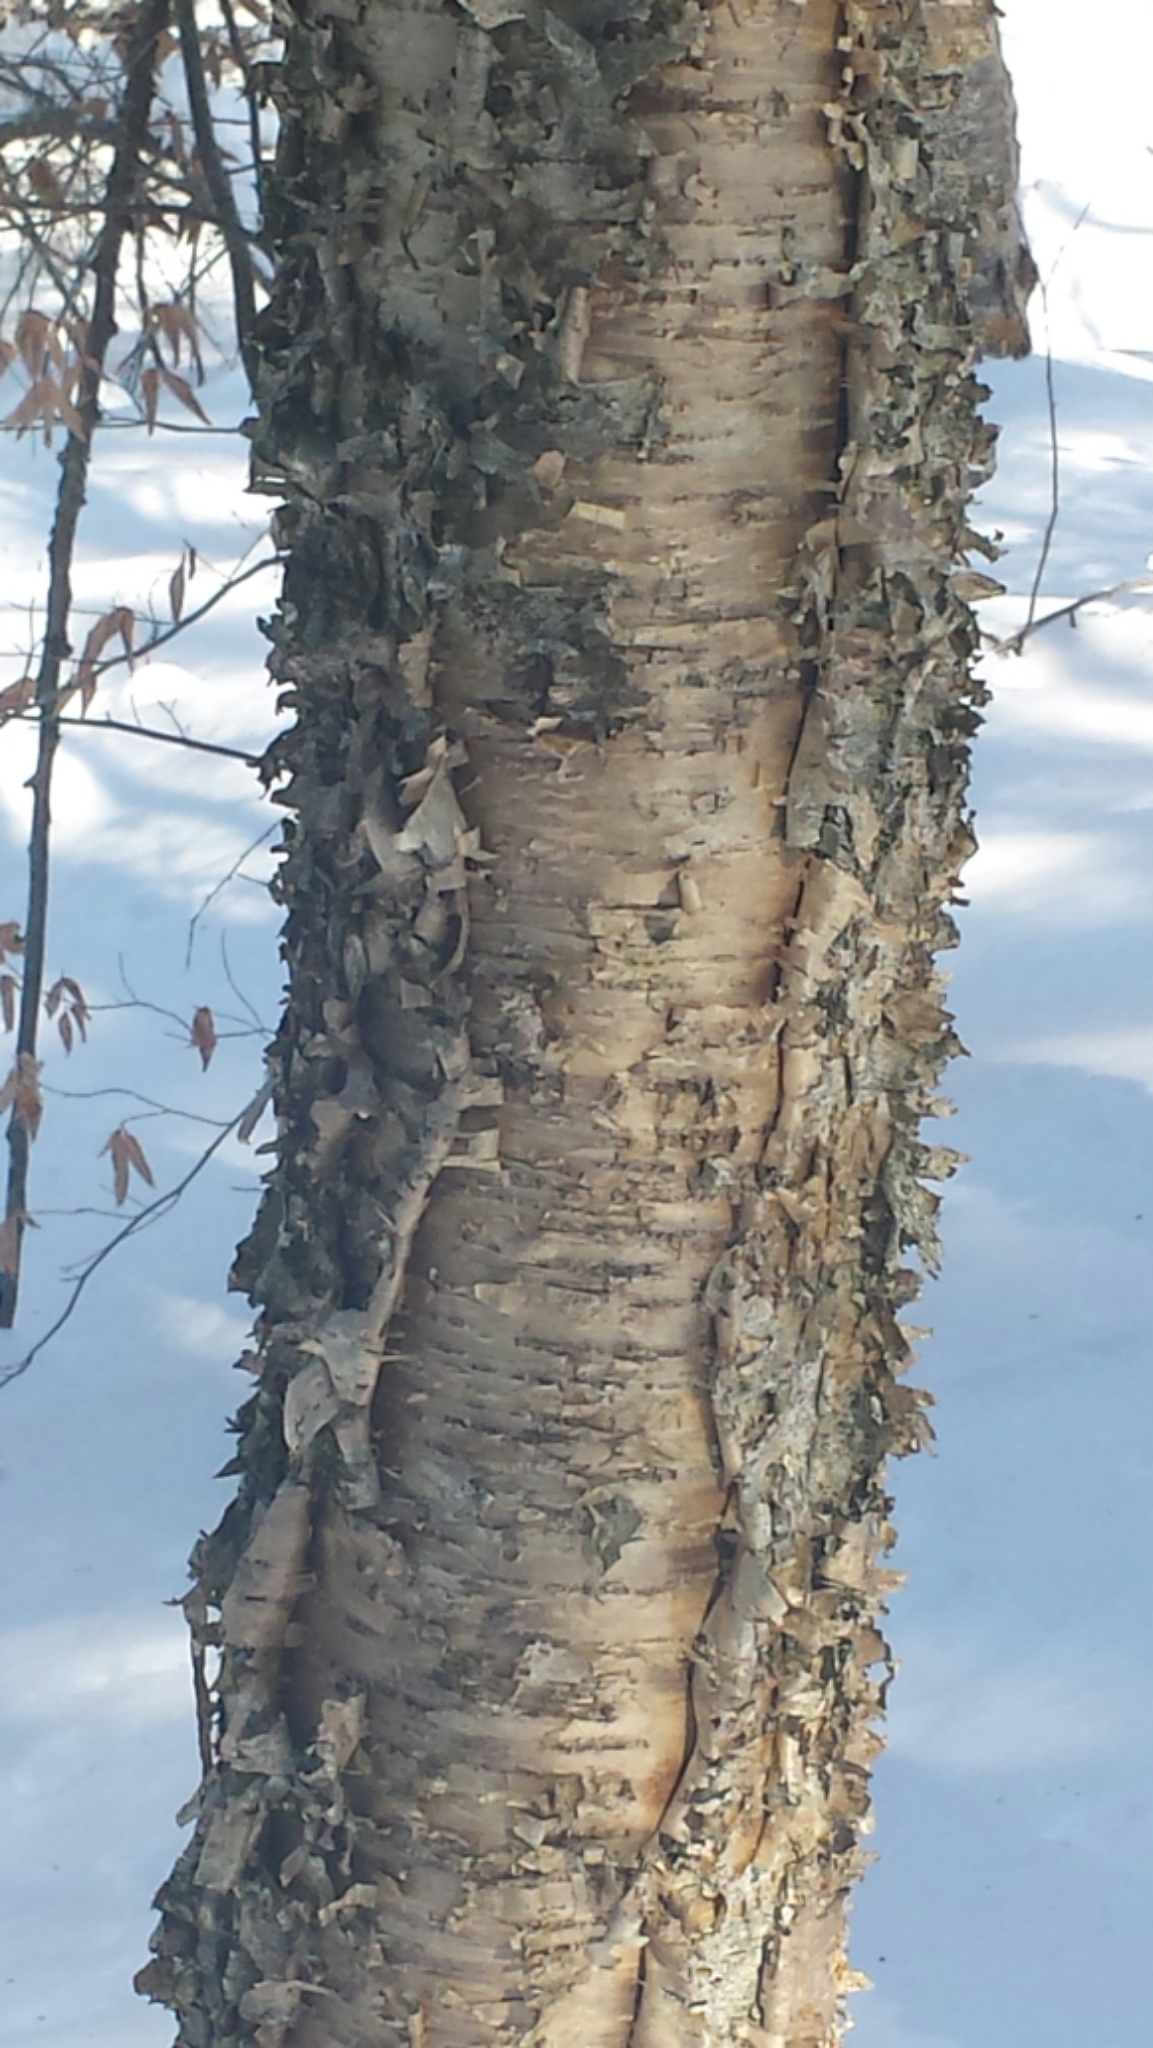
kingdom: Plantae
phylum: Tracheophyta
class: Magnoliopsida
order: Fagales
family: Betulaceae
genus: Betula
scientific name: Betula alleghaniensis
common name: Yellow birch
